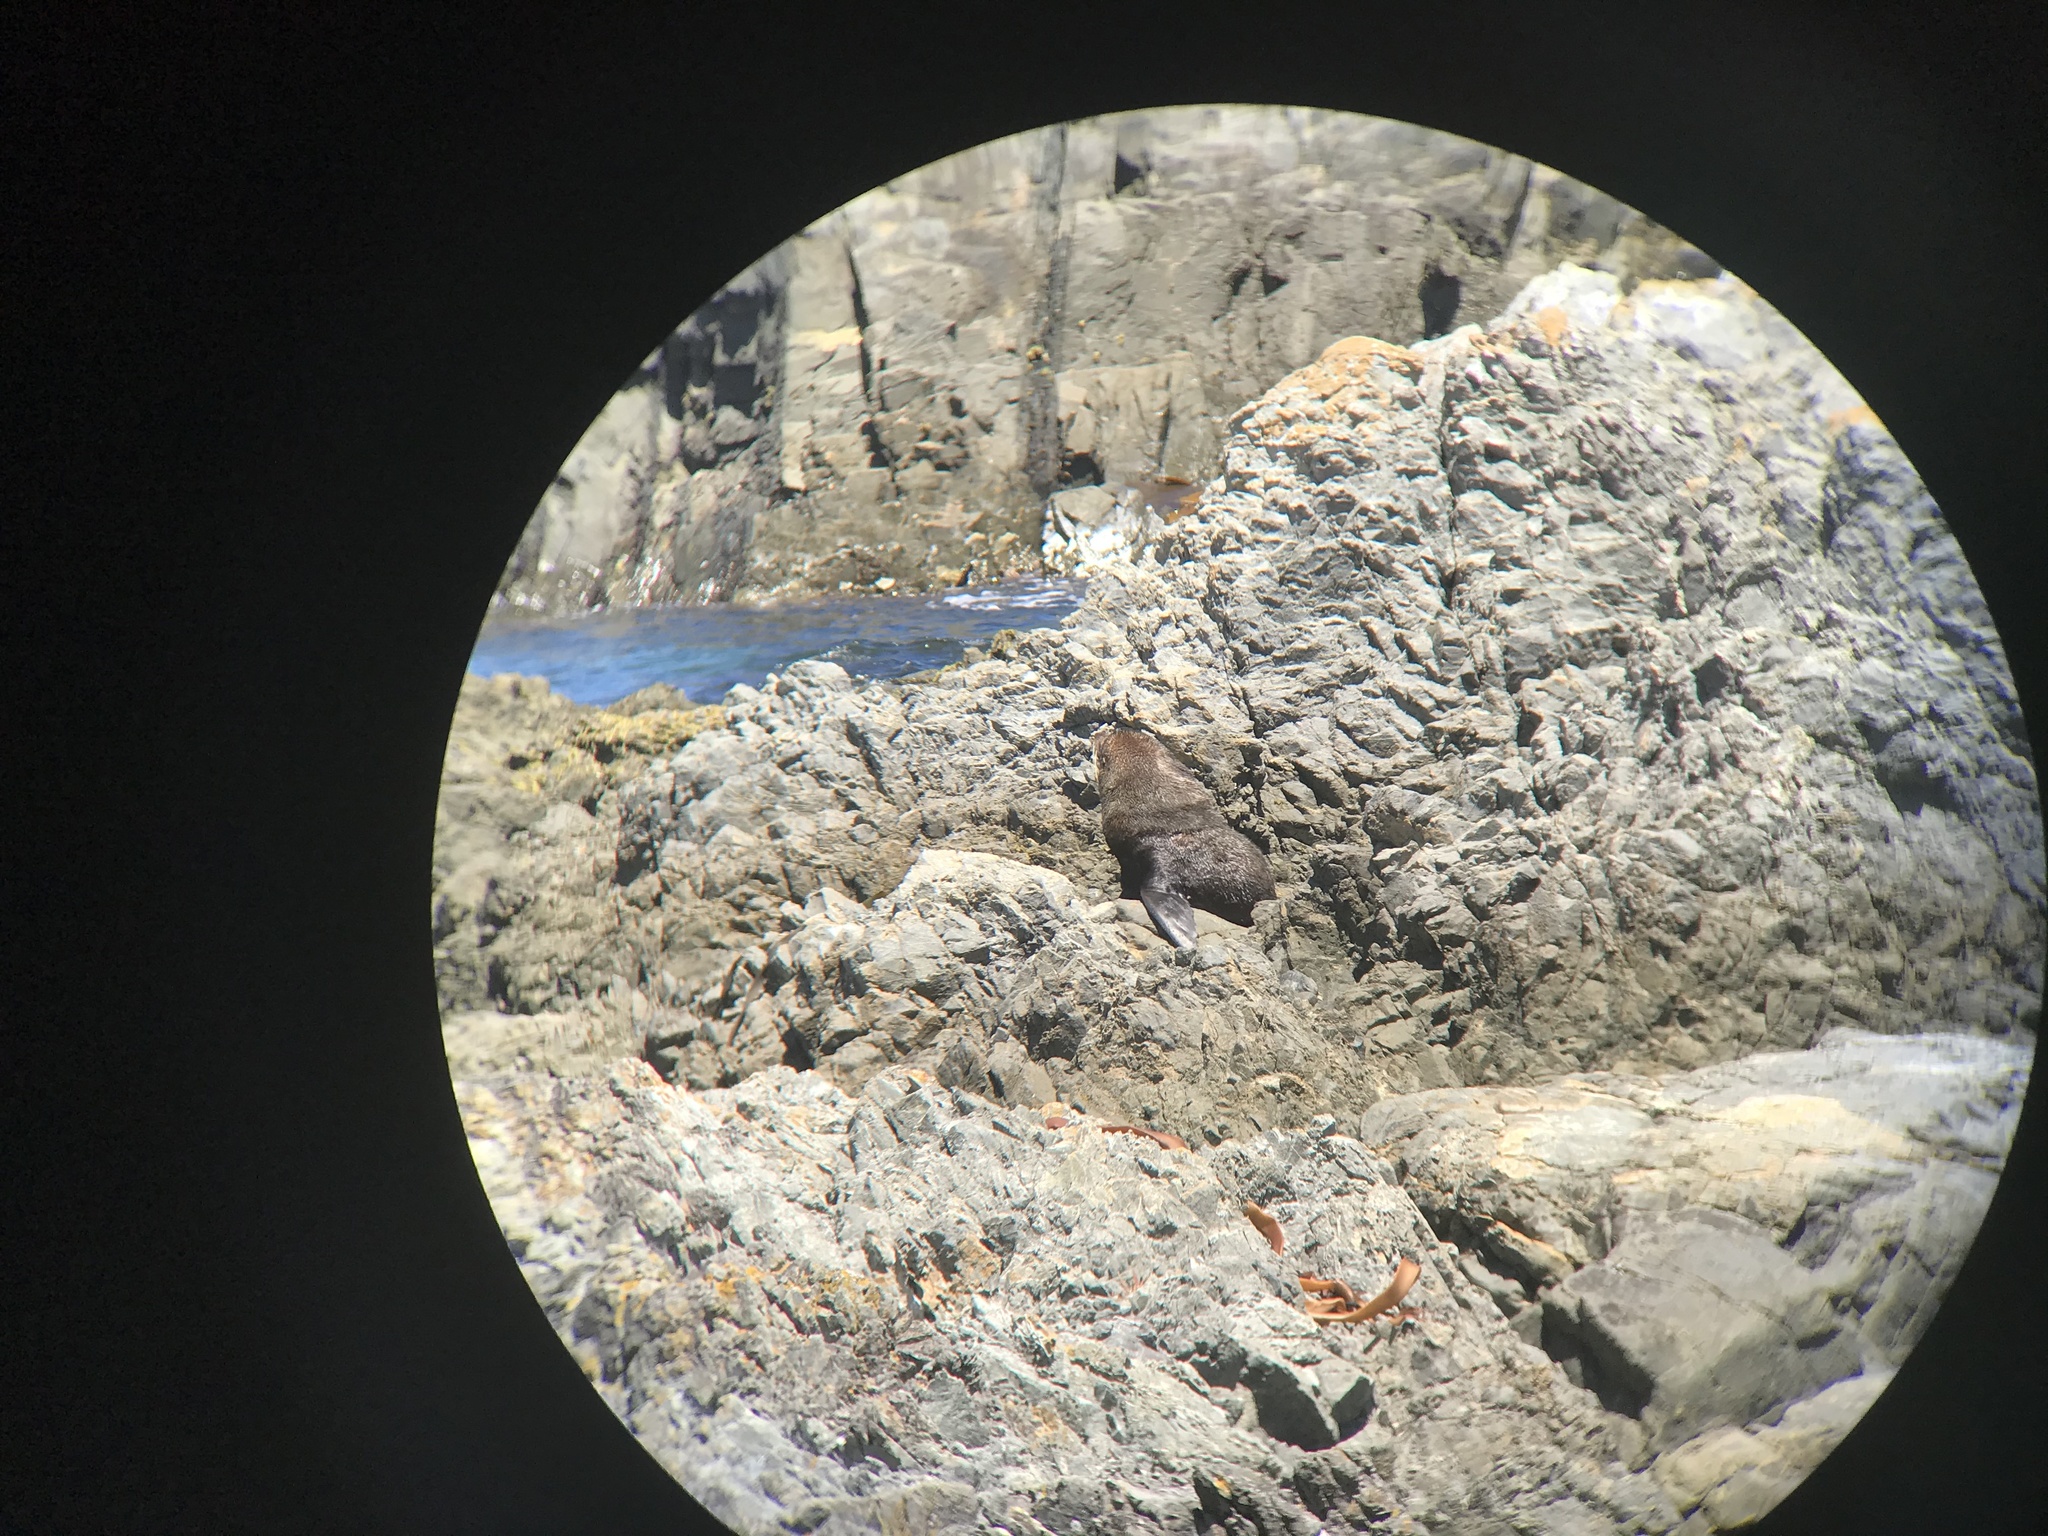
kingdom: Animalia
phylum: Chordata
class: Mammalia
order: Carnivora
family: Otariidae
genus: Arctocephalus
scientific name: Arctocephalus forsteri
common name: New zealand fur seal
